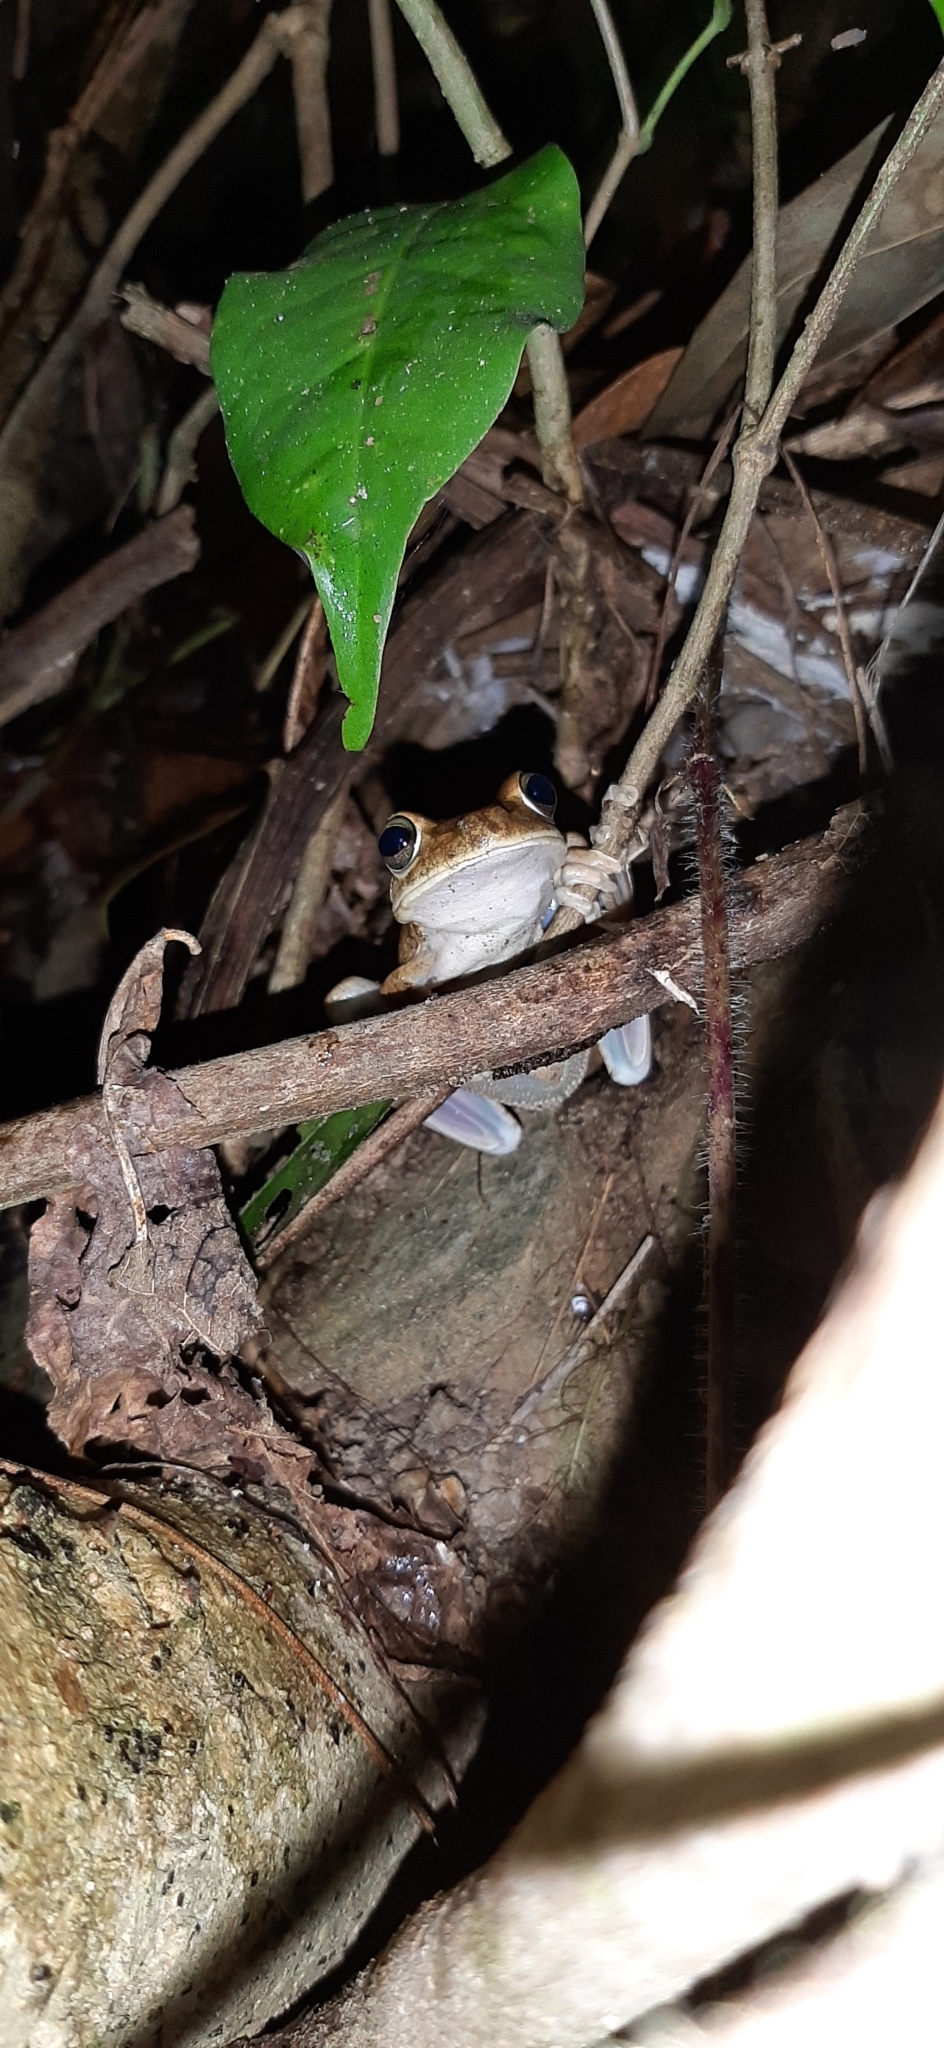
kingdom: Animalia
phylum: Chordata
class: Amphibia
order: Anura
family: Hylidae
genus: Boana
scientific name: Boana pugnax
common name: Chirique-flusse treefrog
